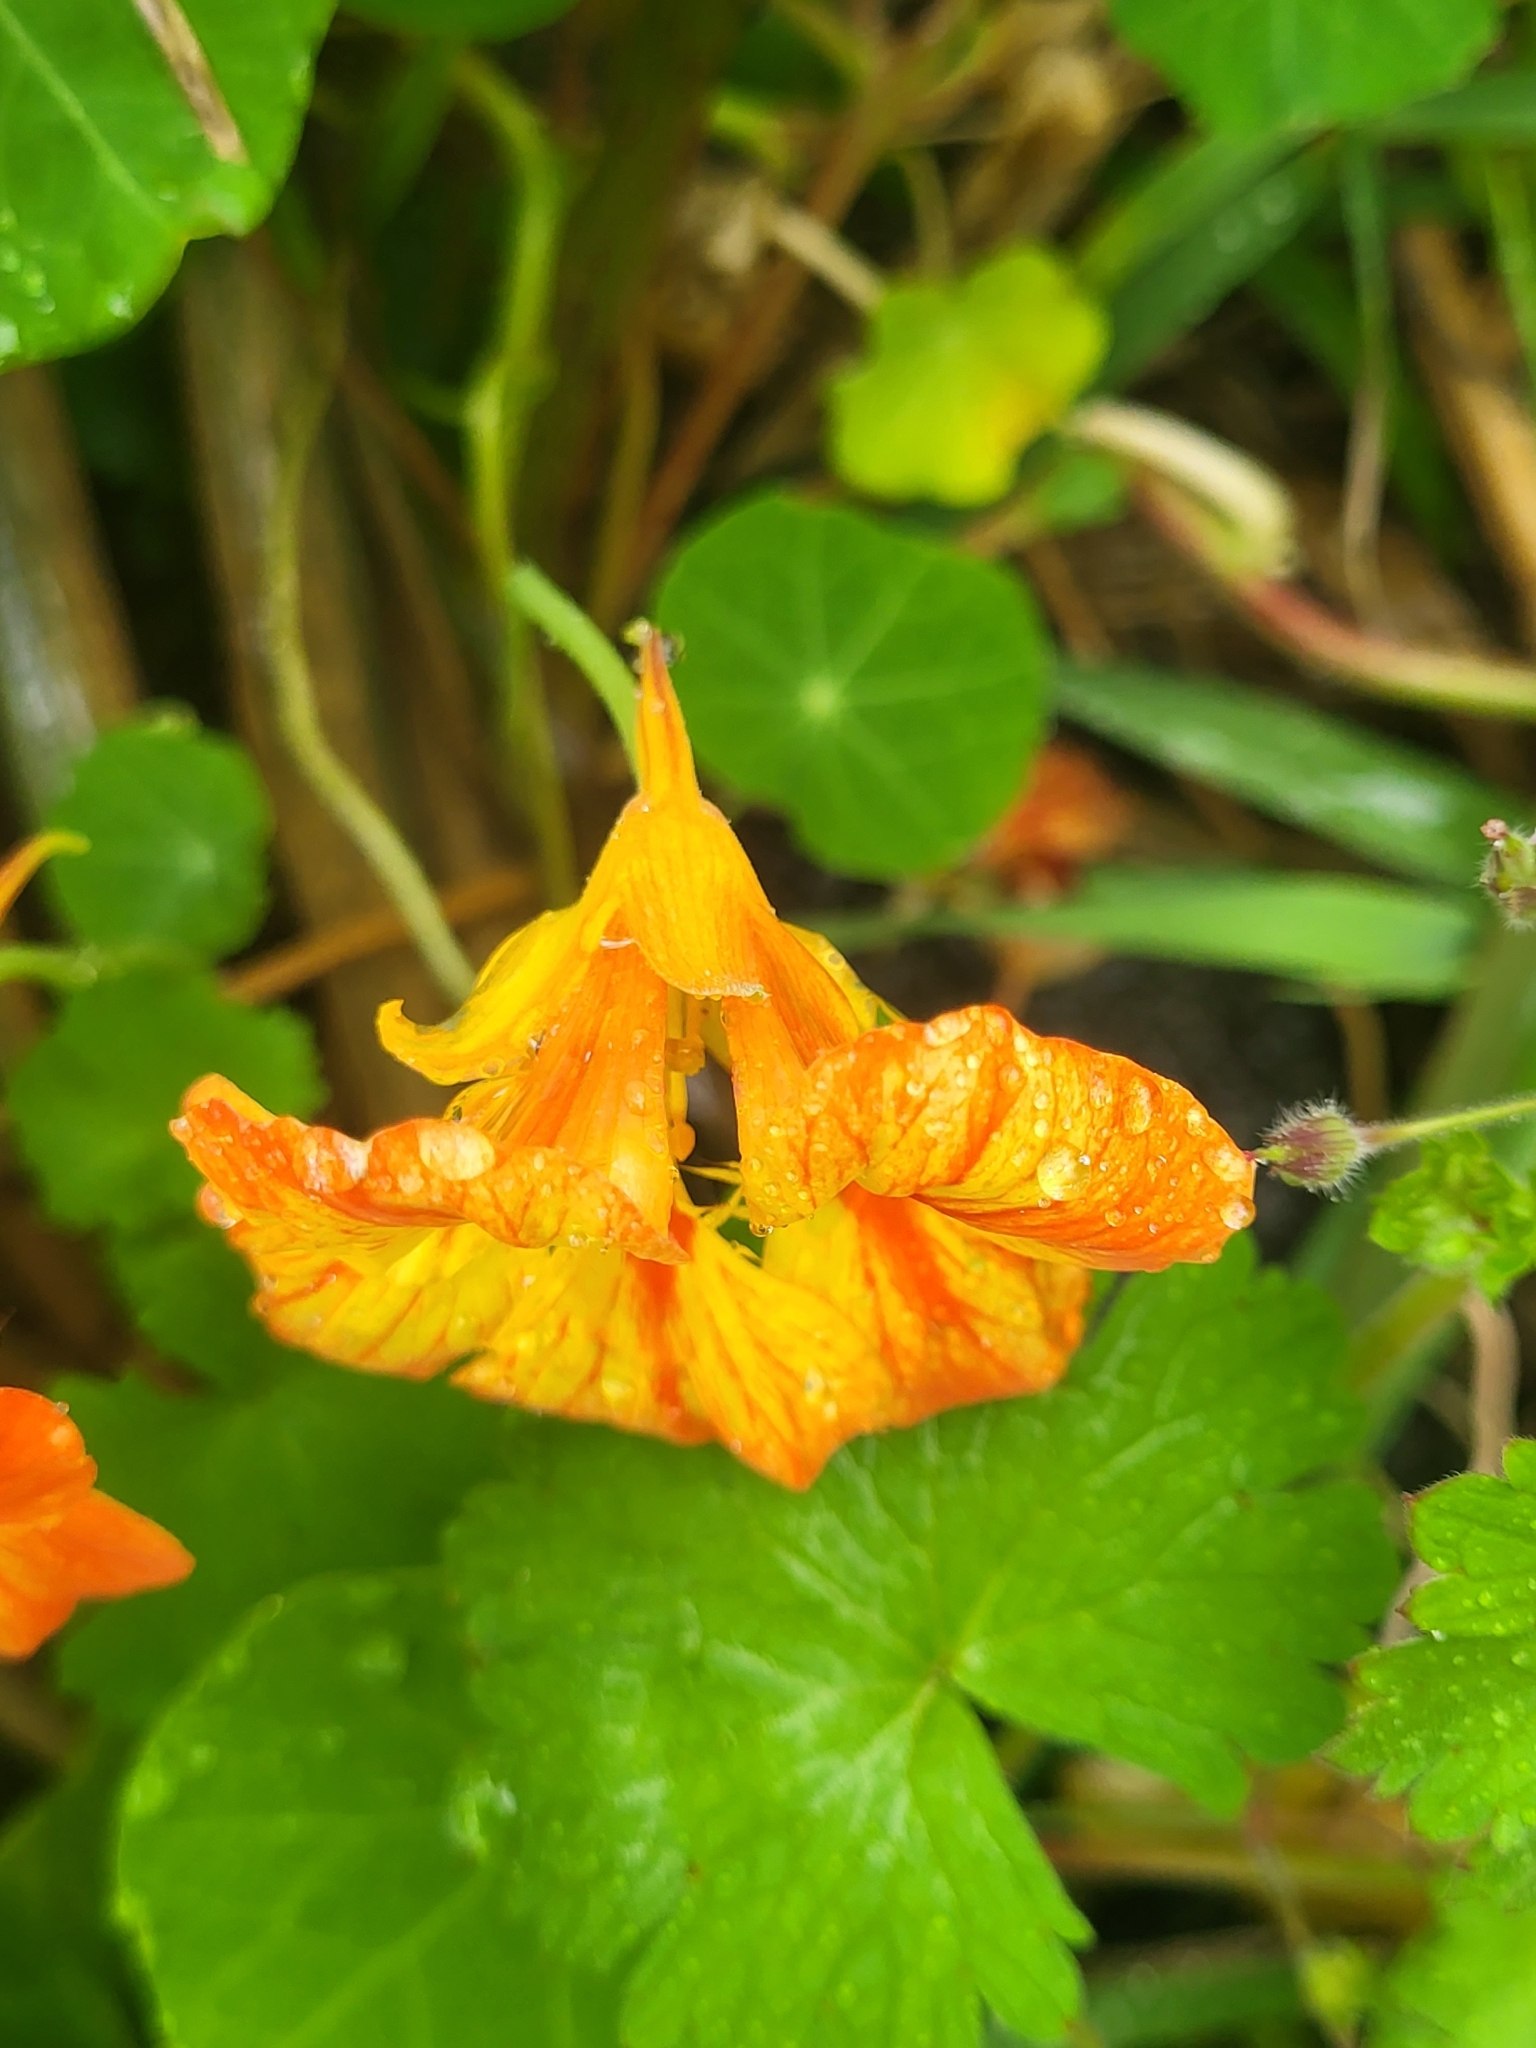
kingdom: Plantae
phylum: Tracheophyta
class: Magnoliopsida
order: Brassicales
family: Tropaeolaceae
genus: Tropaeolum
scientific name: Tropaeolum majus
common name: Nasturtium
